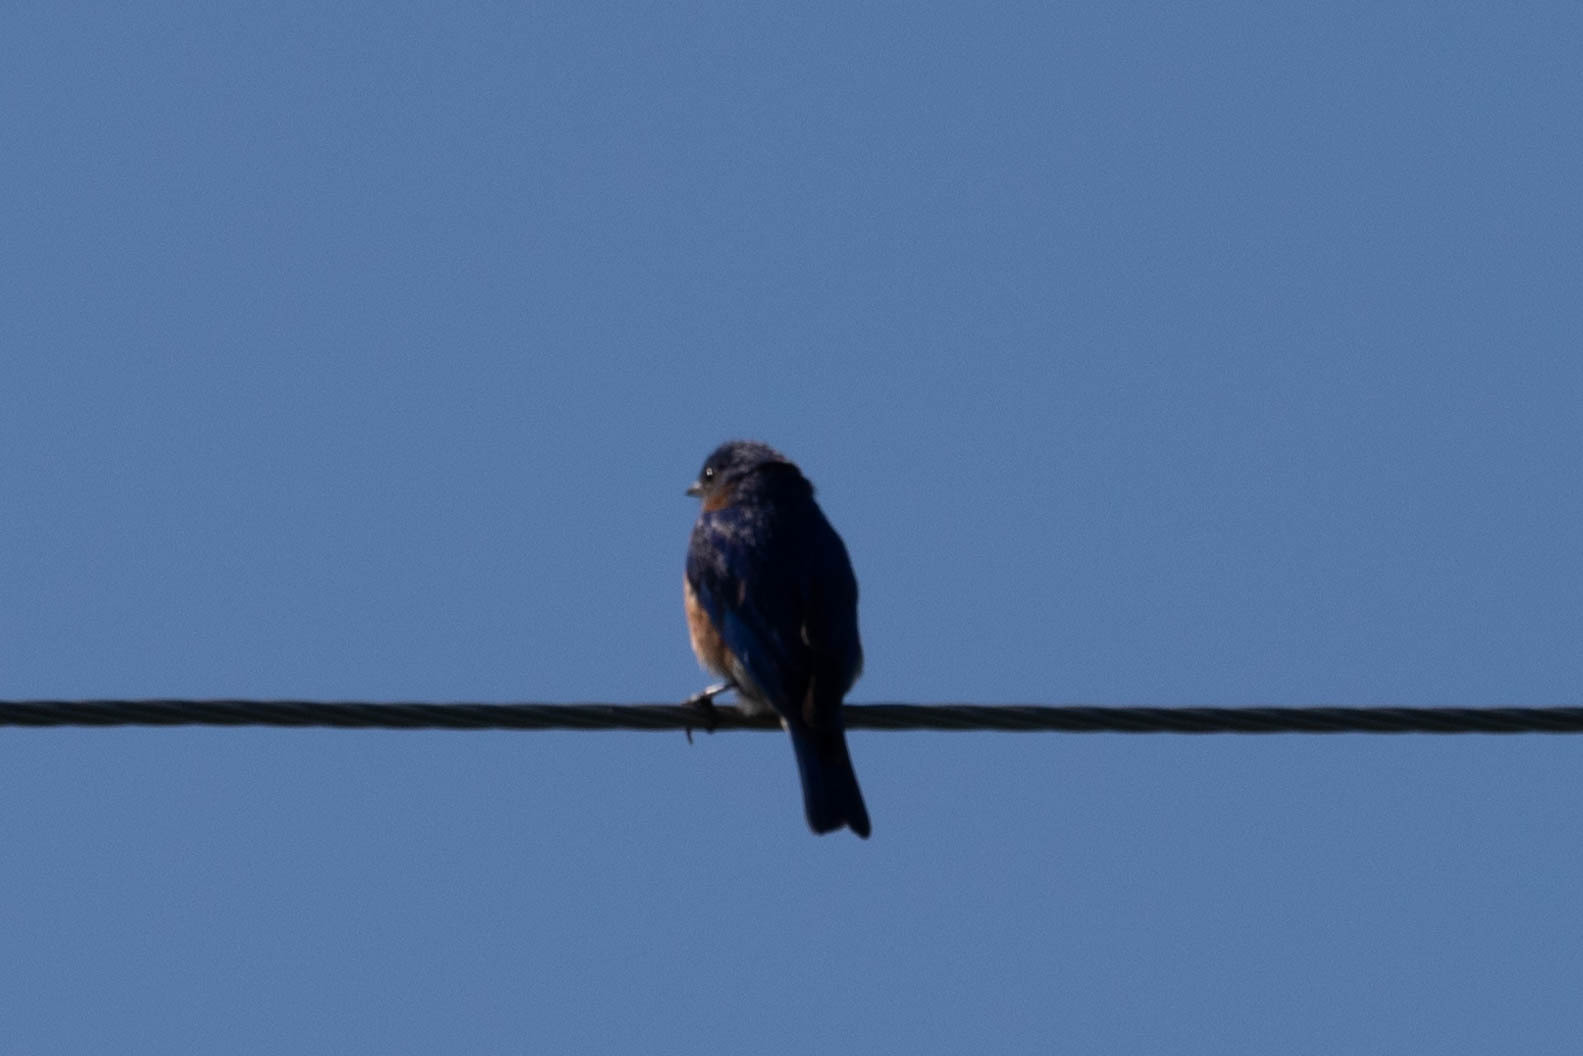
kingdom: Animalia
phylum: Chordata
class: Aves
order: Passeriformes
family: Turdidae
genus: Sialia
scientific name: Sialia sialis
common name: Eastern bluebird
